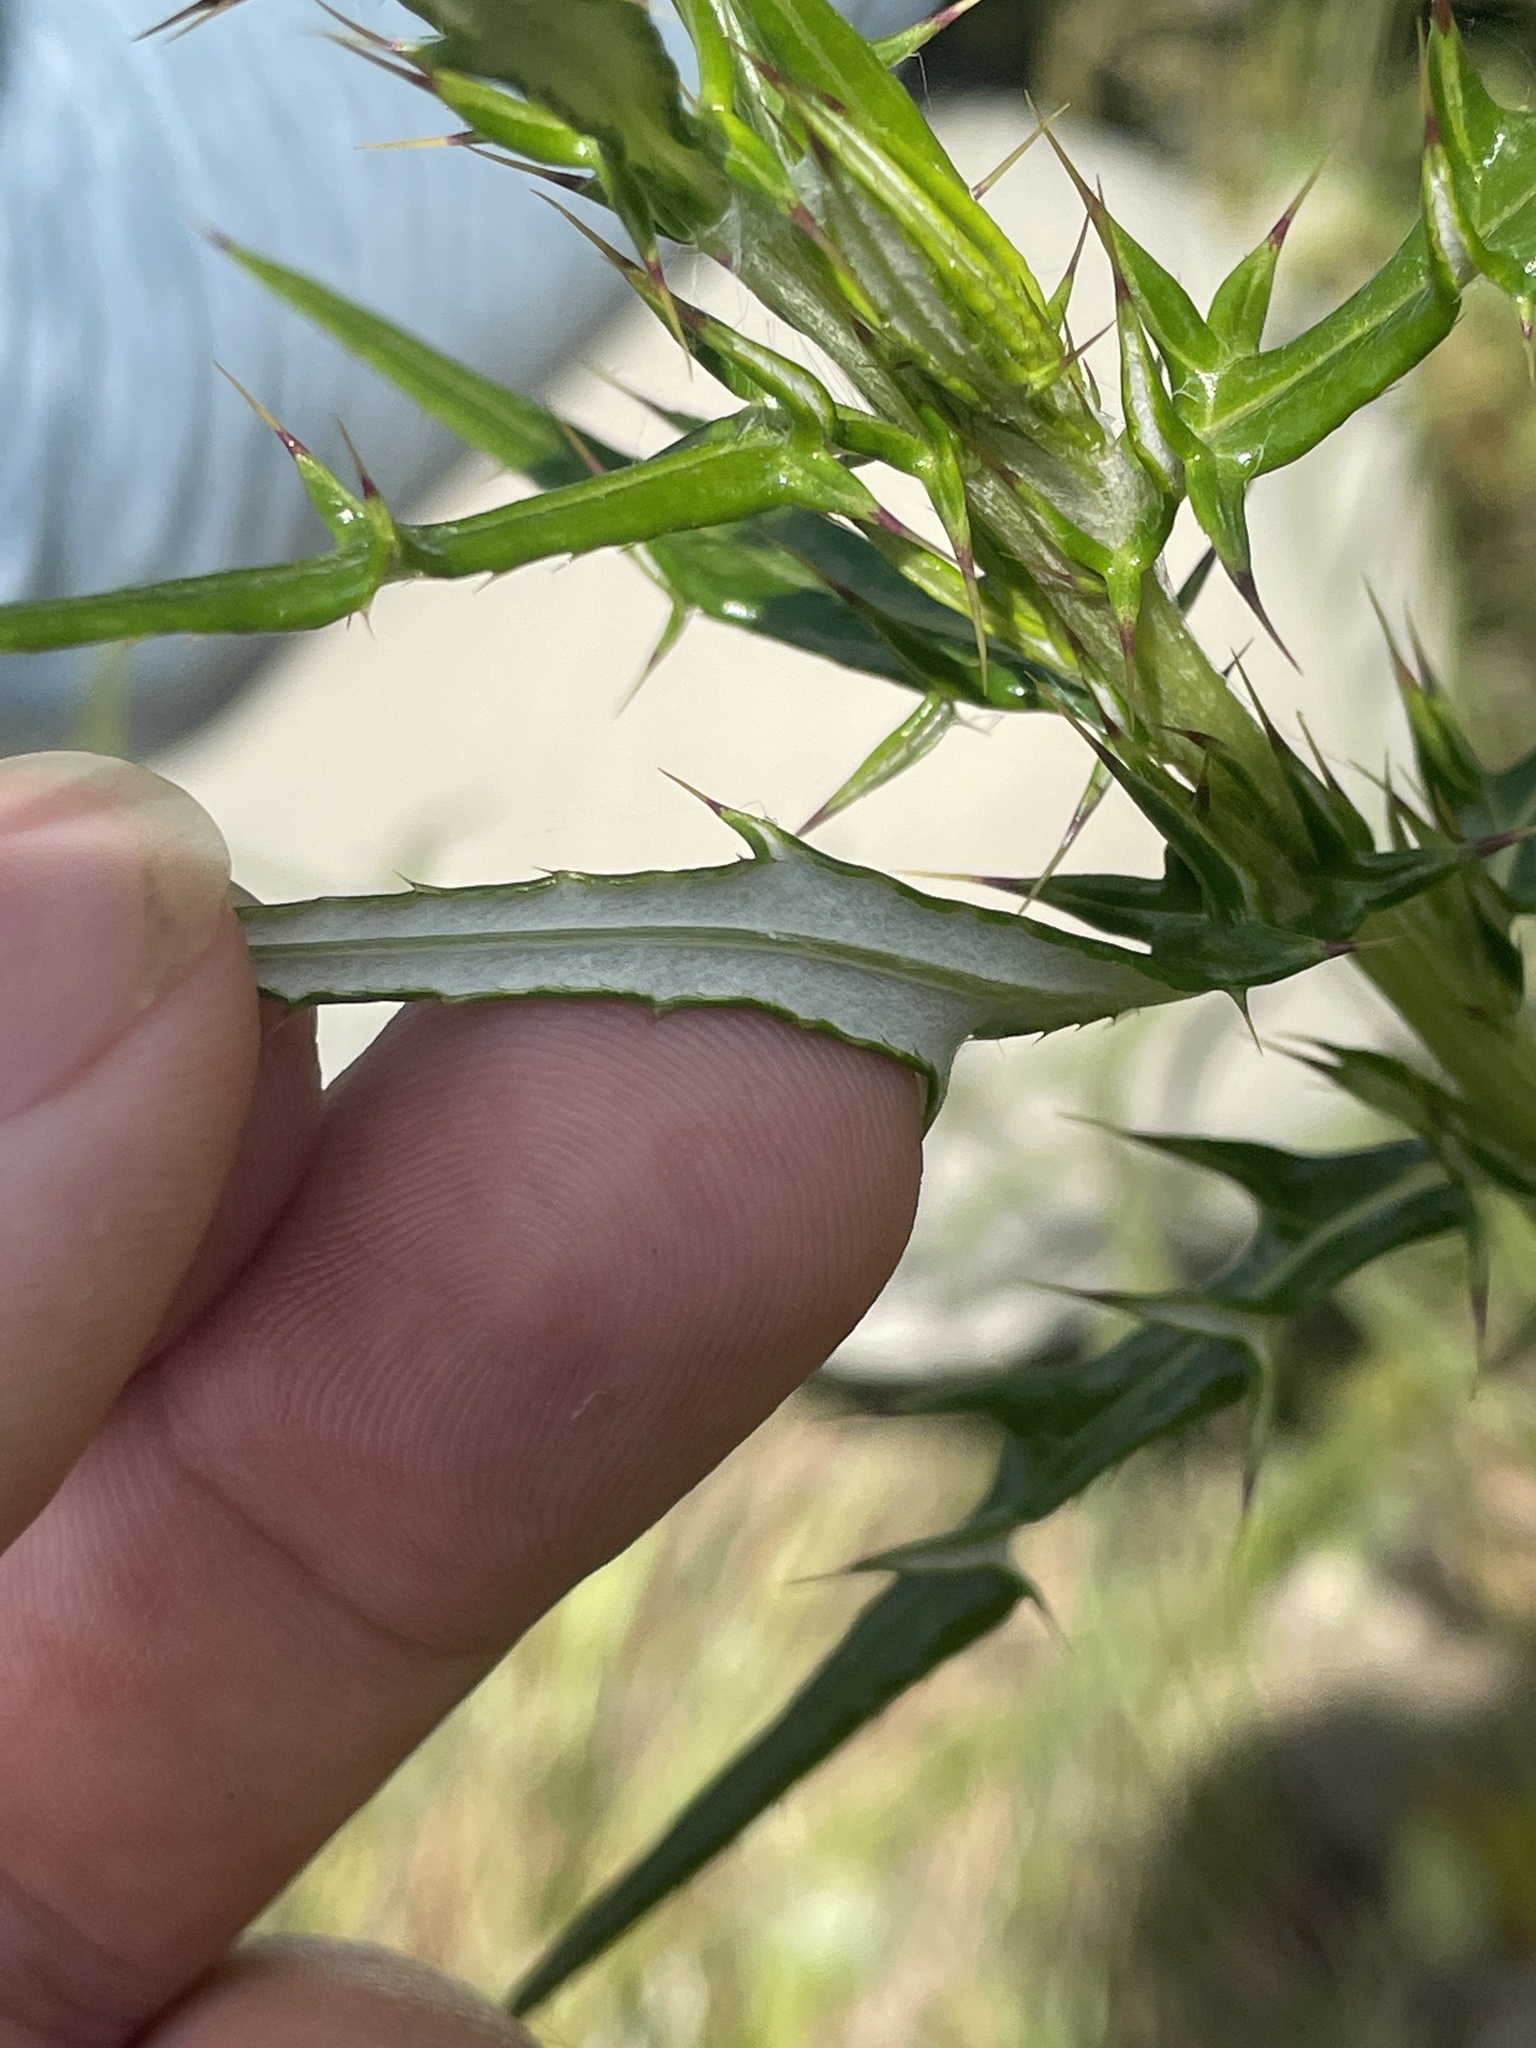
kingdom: Plantae
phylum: Tracheophyta
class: Magnoliopsida
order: Asterales
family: Asteraceae
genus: Cirsium
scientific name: Cirsium virginianum
